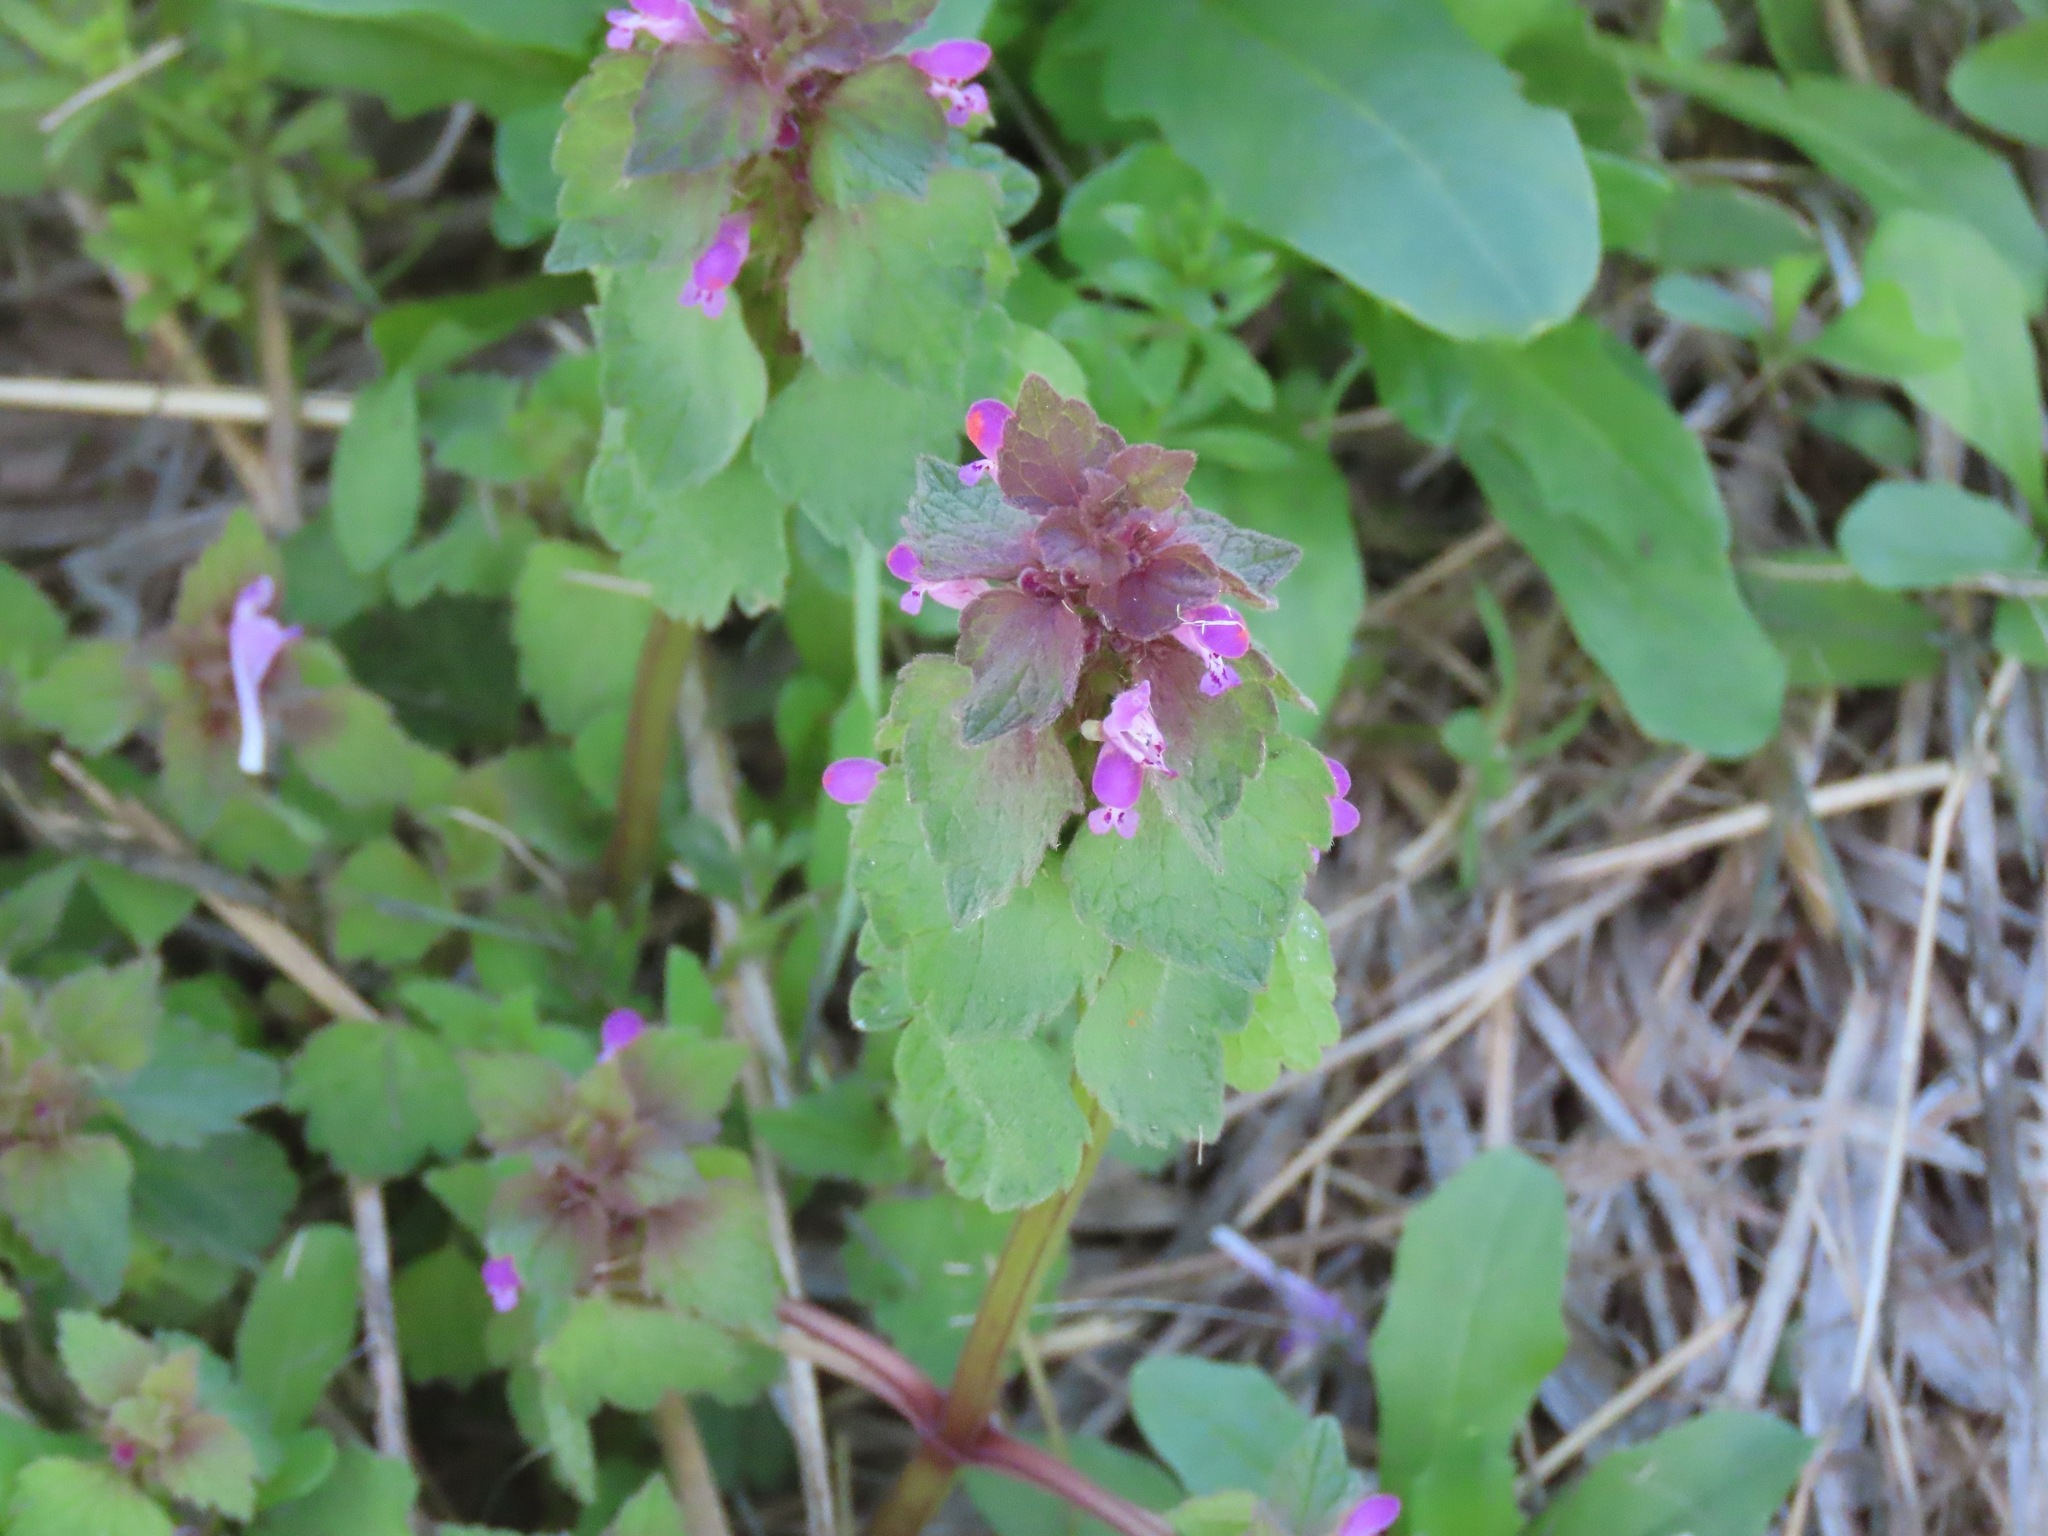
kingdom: Plantae
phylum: Tracheophyta
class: Magnoliopsida
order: Lamiales
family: Lamiaceae
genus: Lamium
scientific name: Lamium purpureum
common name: Red dead-nettle
